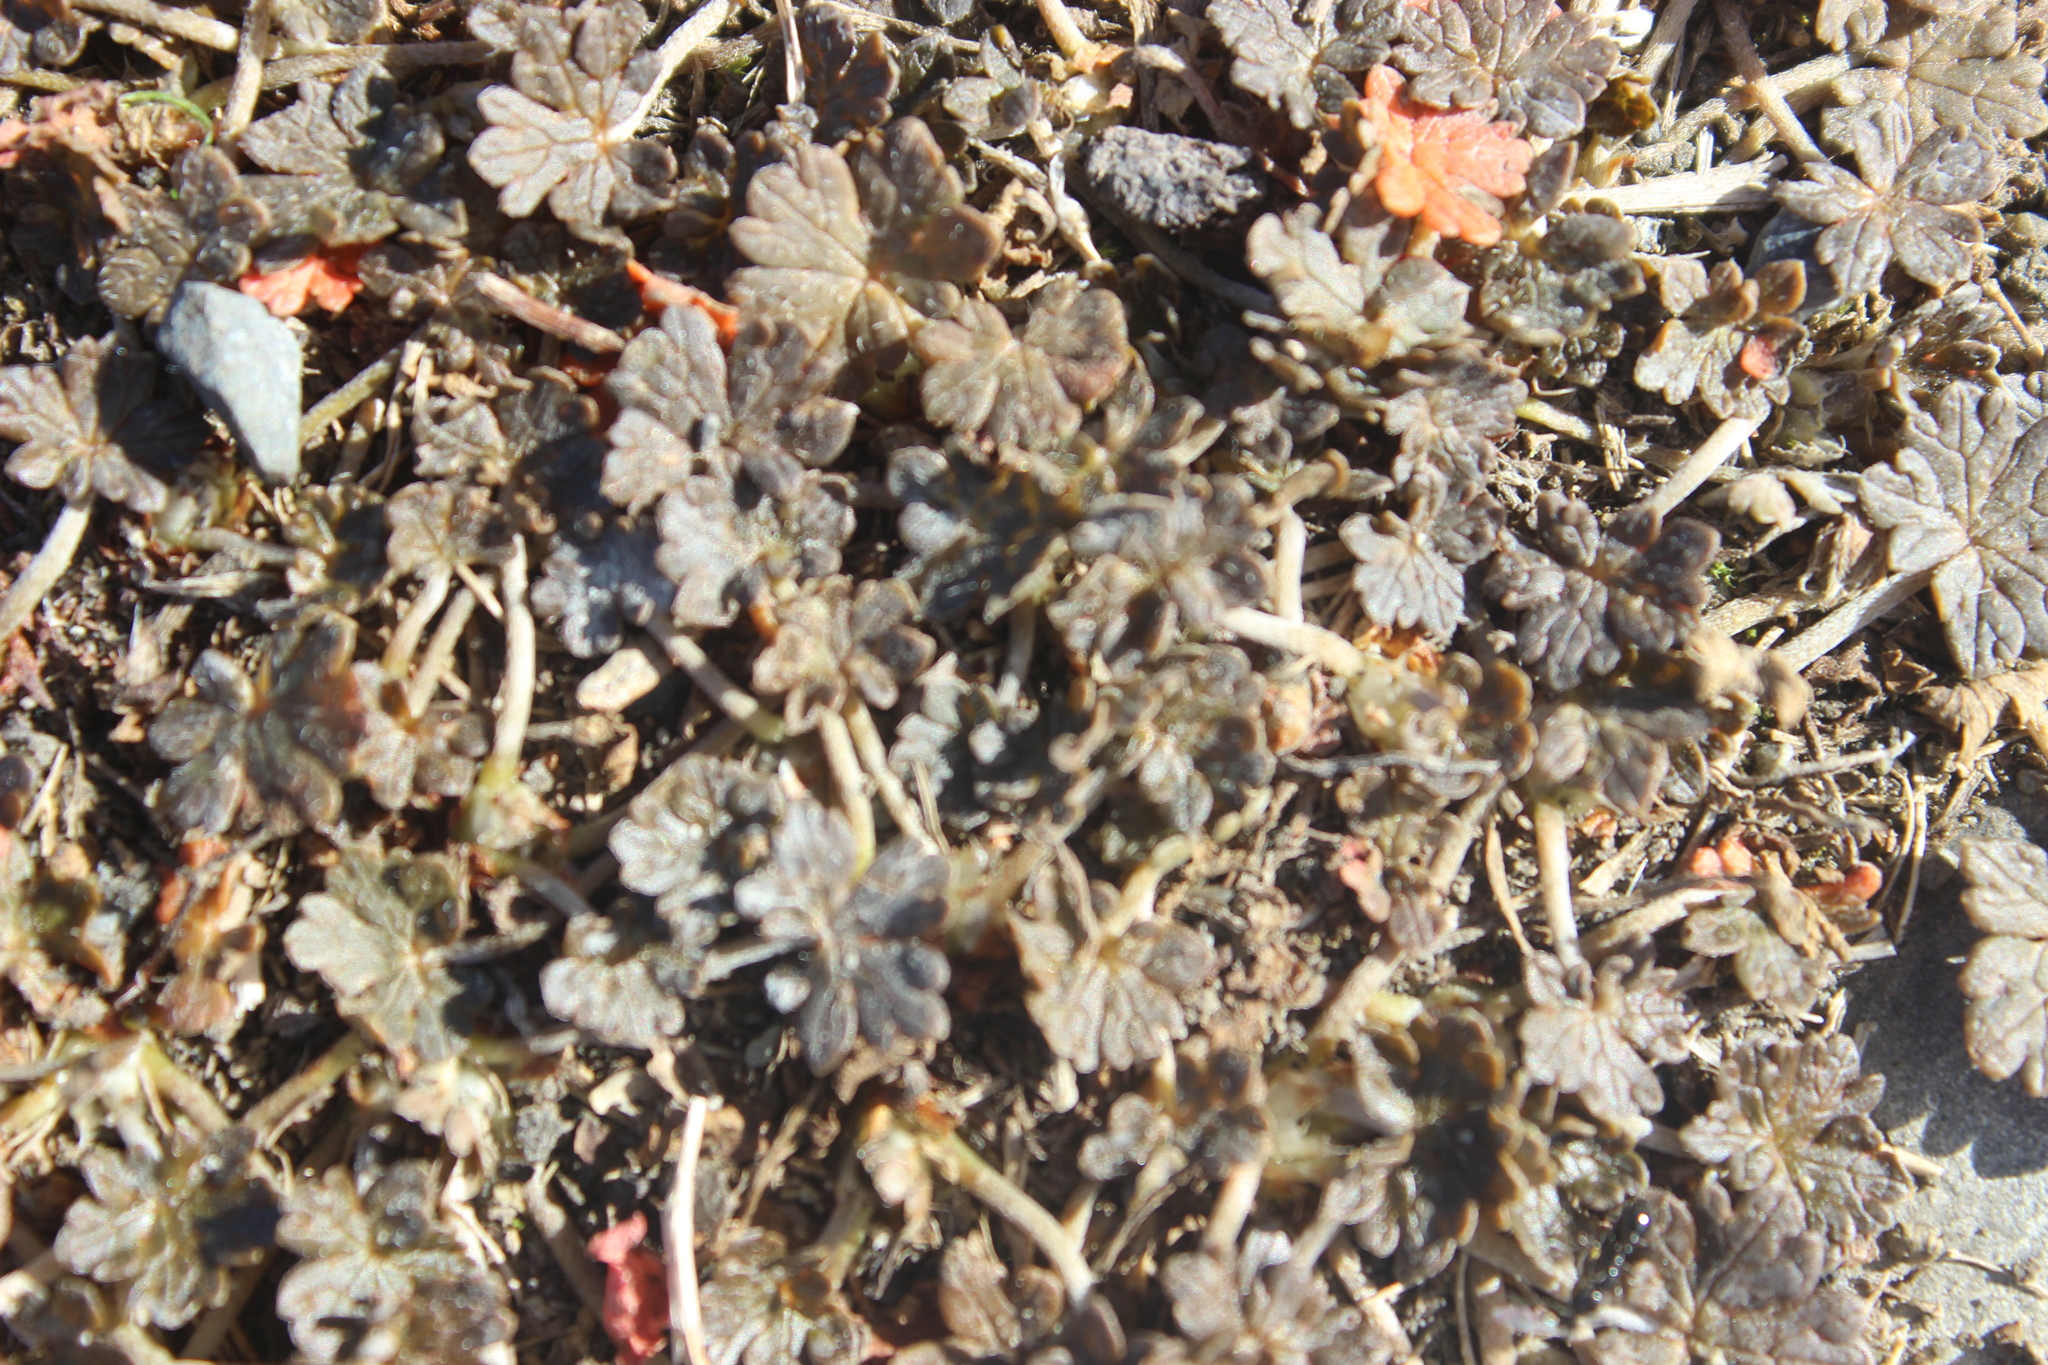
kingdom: Plantae
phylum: Tracheophyta
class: Magnoliopsida
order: Geraniales
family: Geraniaceae
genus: Geranium
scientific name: Geranium brevicaule
